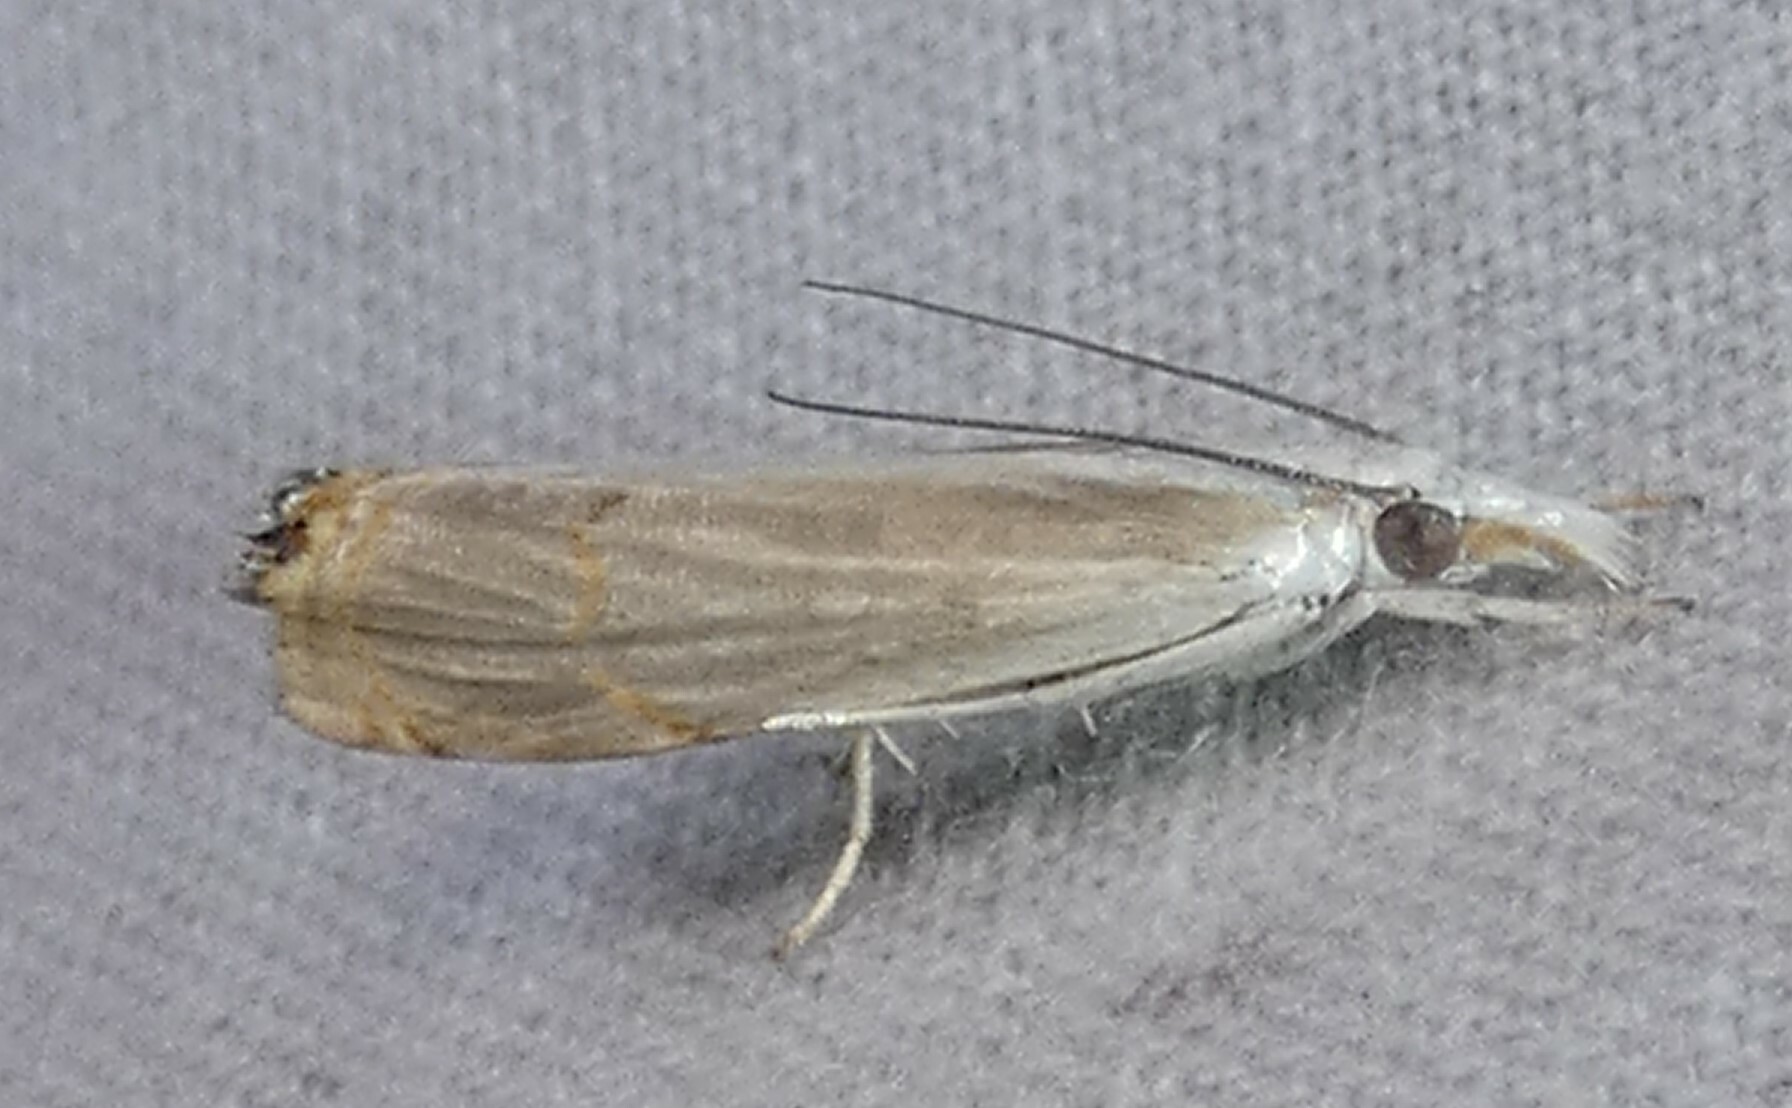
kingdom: Animalia
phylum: Arthropoda
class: Insecta
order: Lepidoptera
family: Crambidae
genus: Parapediasia
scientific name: Parapediasia decorellus
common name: Graceful grass-veneer
